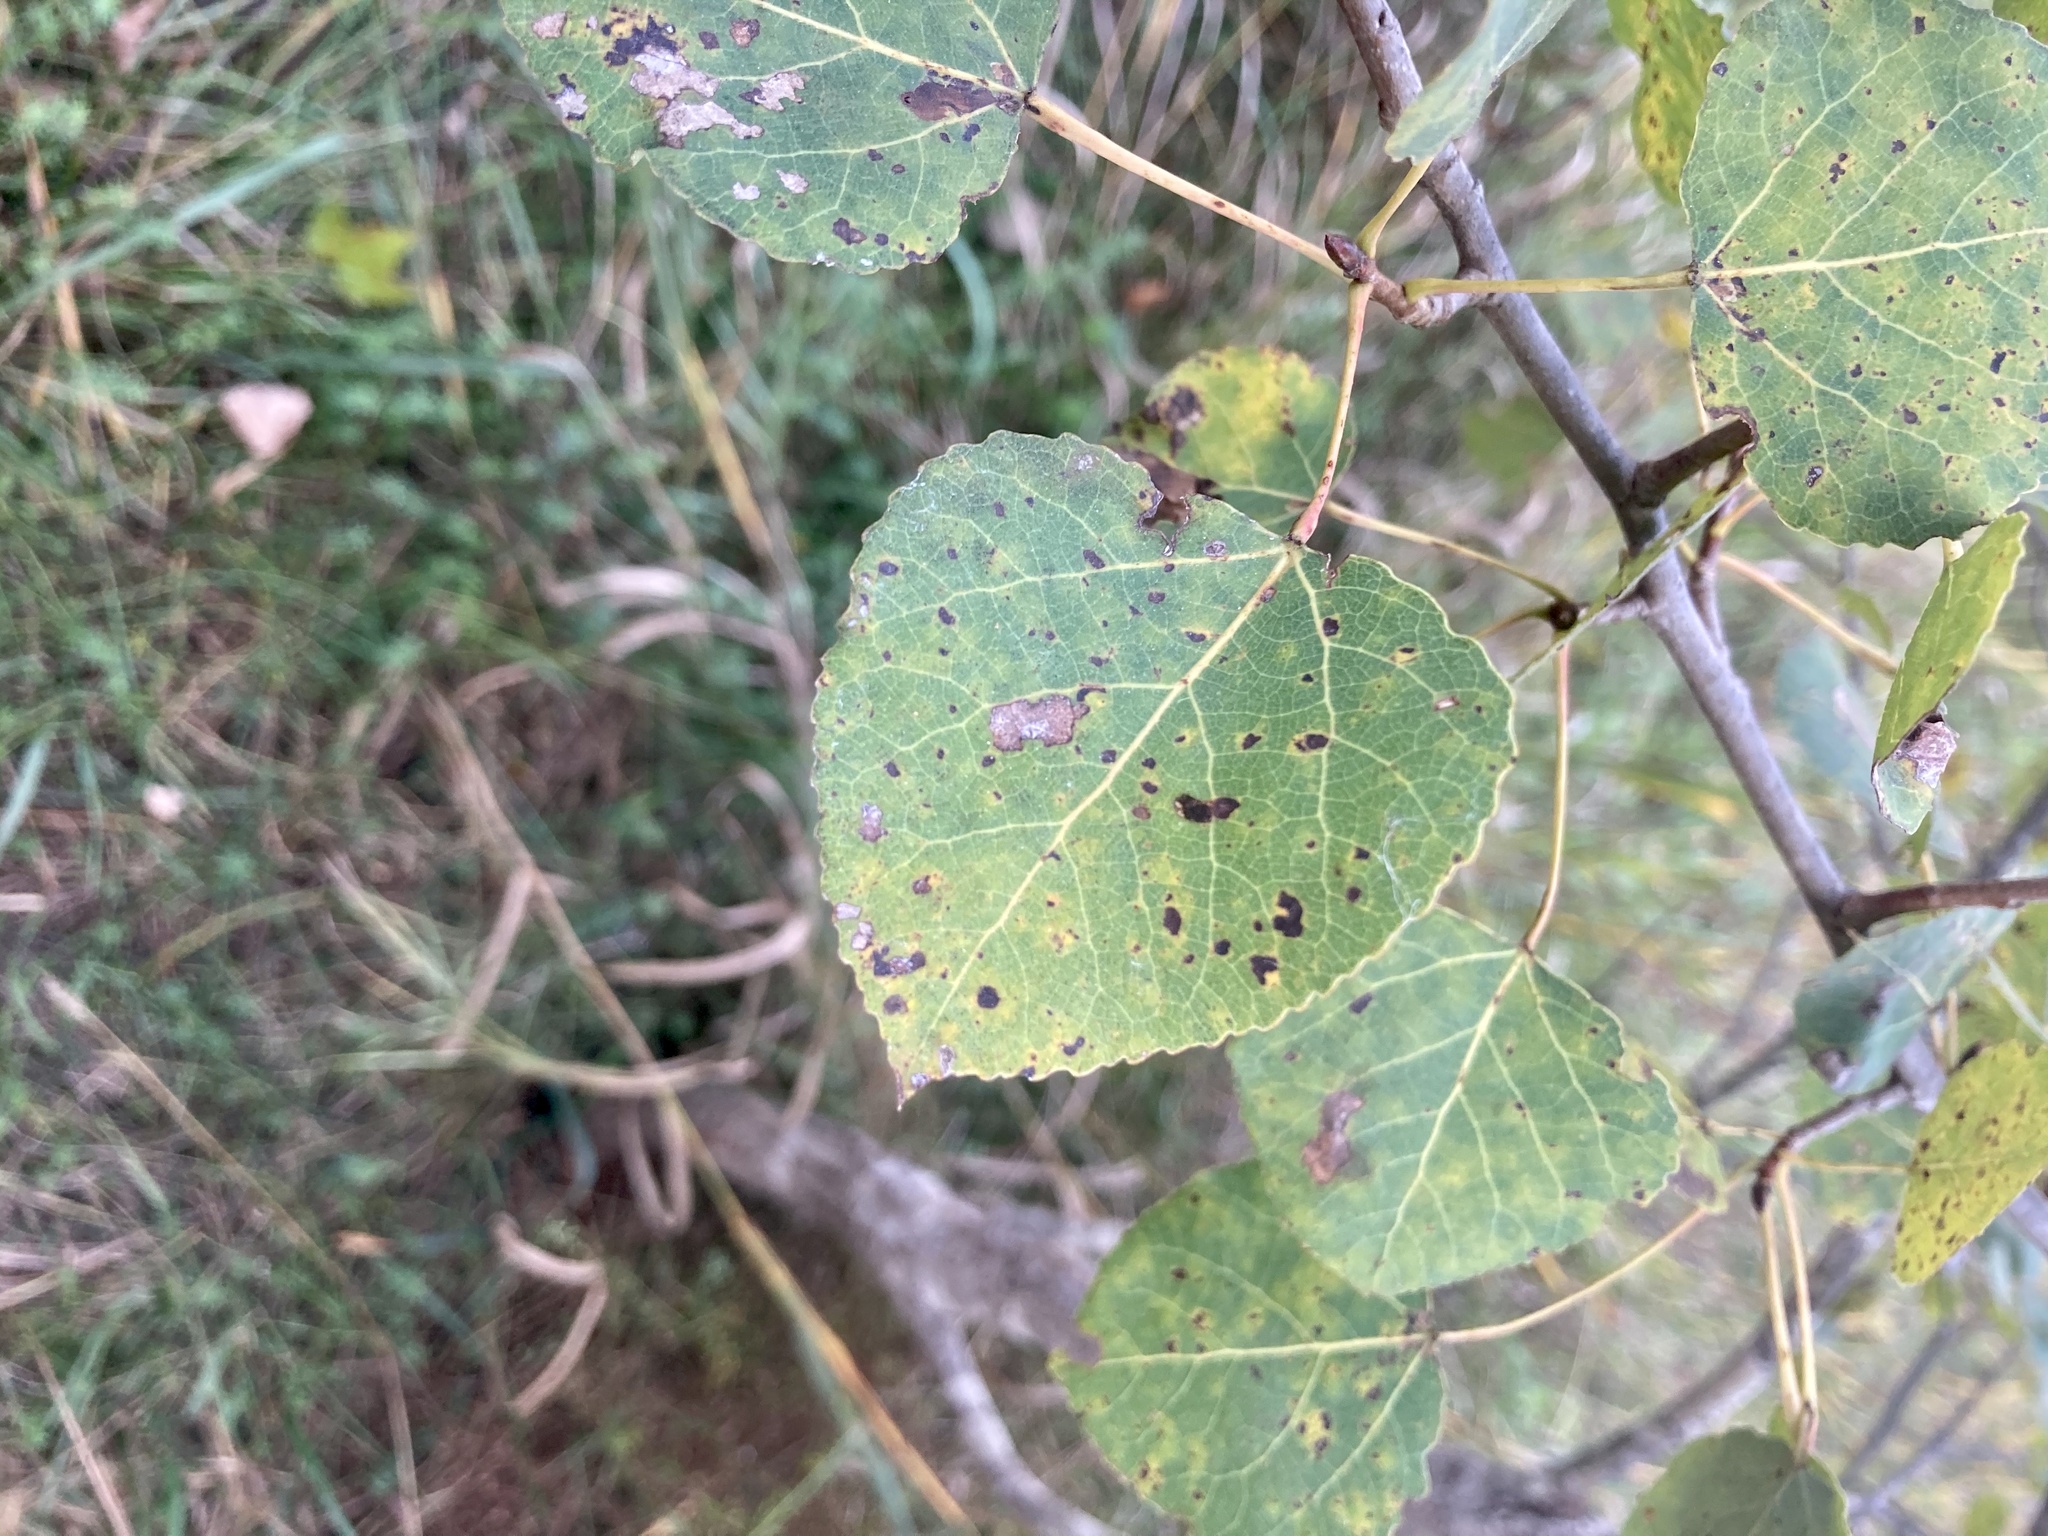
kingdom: Plantae
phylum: Tracheophyta
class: Magnoliopsida
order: Malpighiales
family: Salicaceae
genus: Populus
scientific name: Populus tremuloides
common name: Quaking aspen
